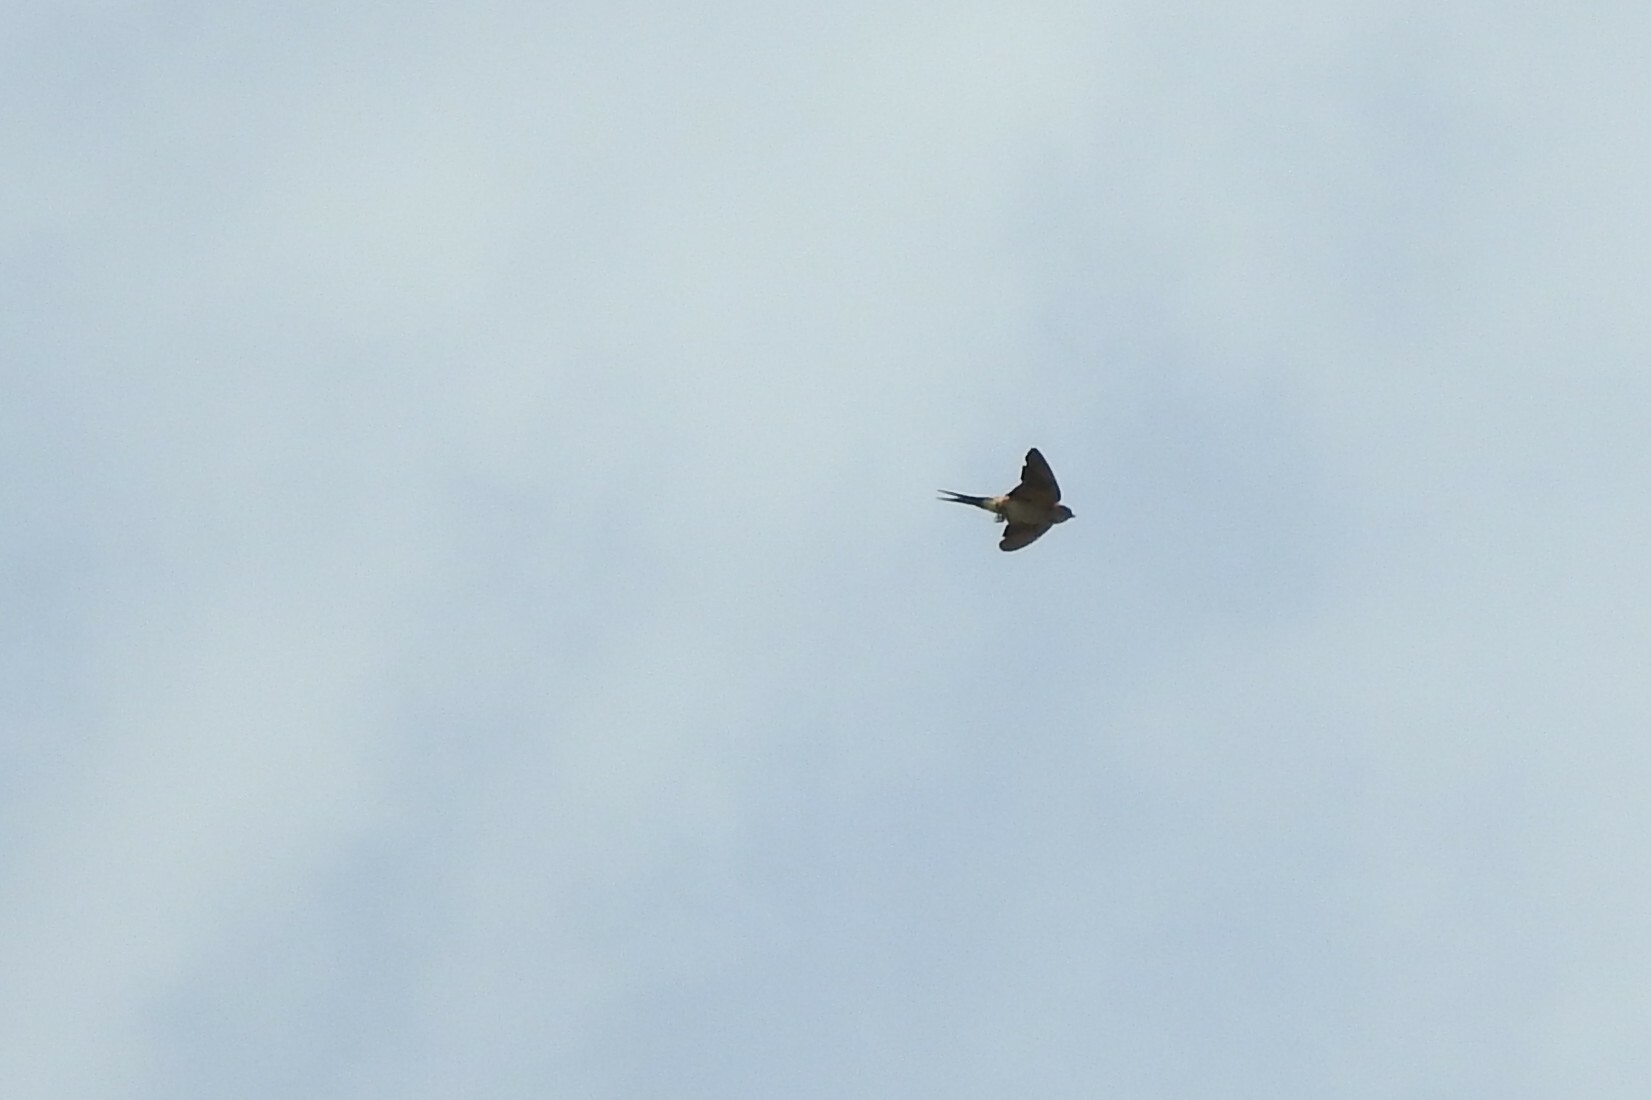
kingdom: Animalia
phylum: Chordata
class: Aves
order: Passeriformes
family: Hirundinidae
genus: Cecropis
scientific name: Cecropis daurica
